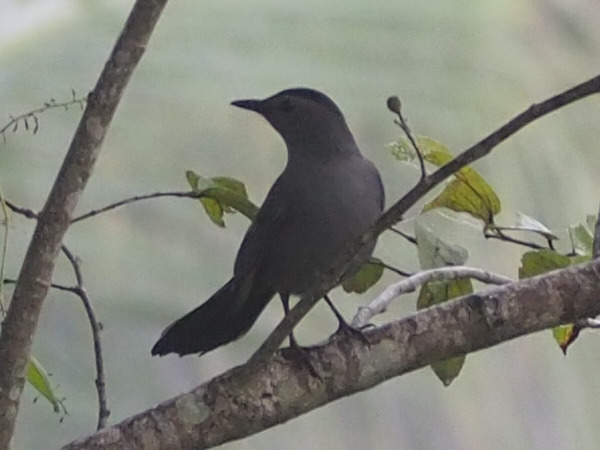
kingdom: Animalia
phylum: Chordata
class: Aves
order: Passeriformes
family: Mimidae
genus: Dumetella
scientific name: Dumetella carolinensis
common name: Gray catbird
